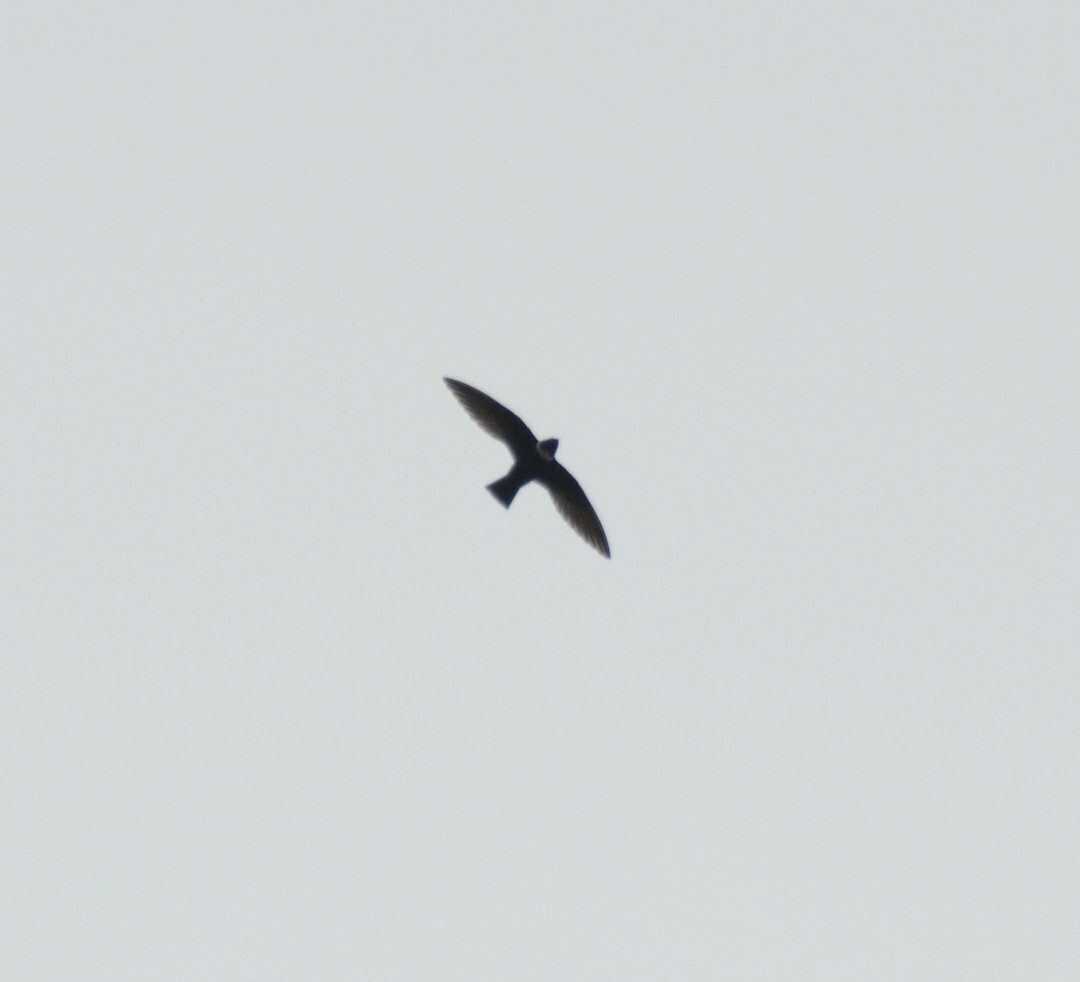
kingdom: Animalia
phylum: Chordata
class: Aves
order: Apodiformes
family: Apodidae
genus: Streptoprocne
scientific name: Streptoprocne zonaris
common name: White-collared swift
